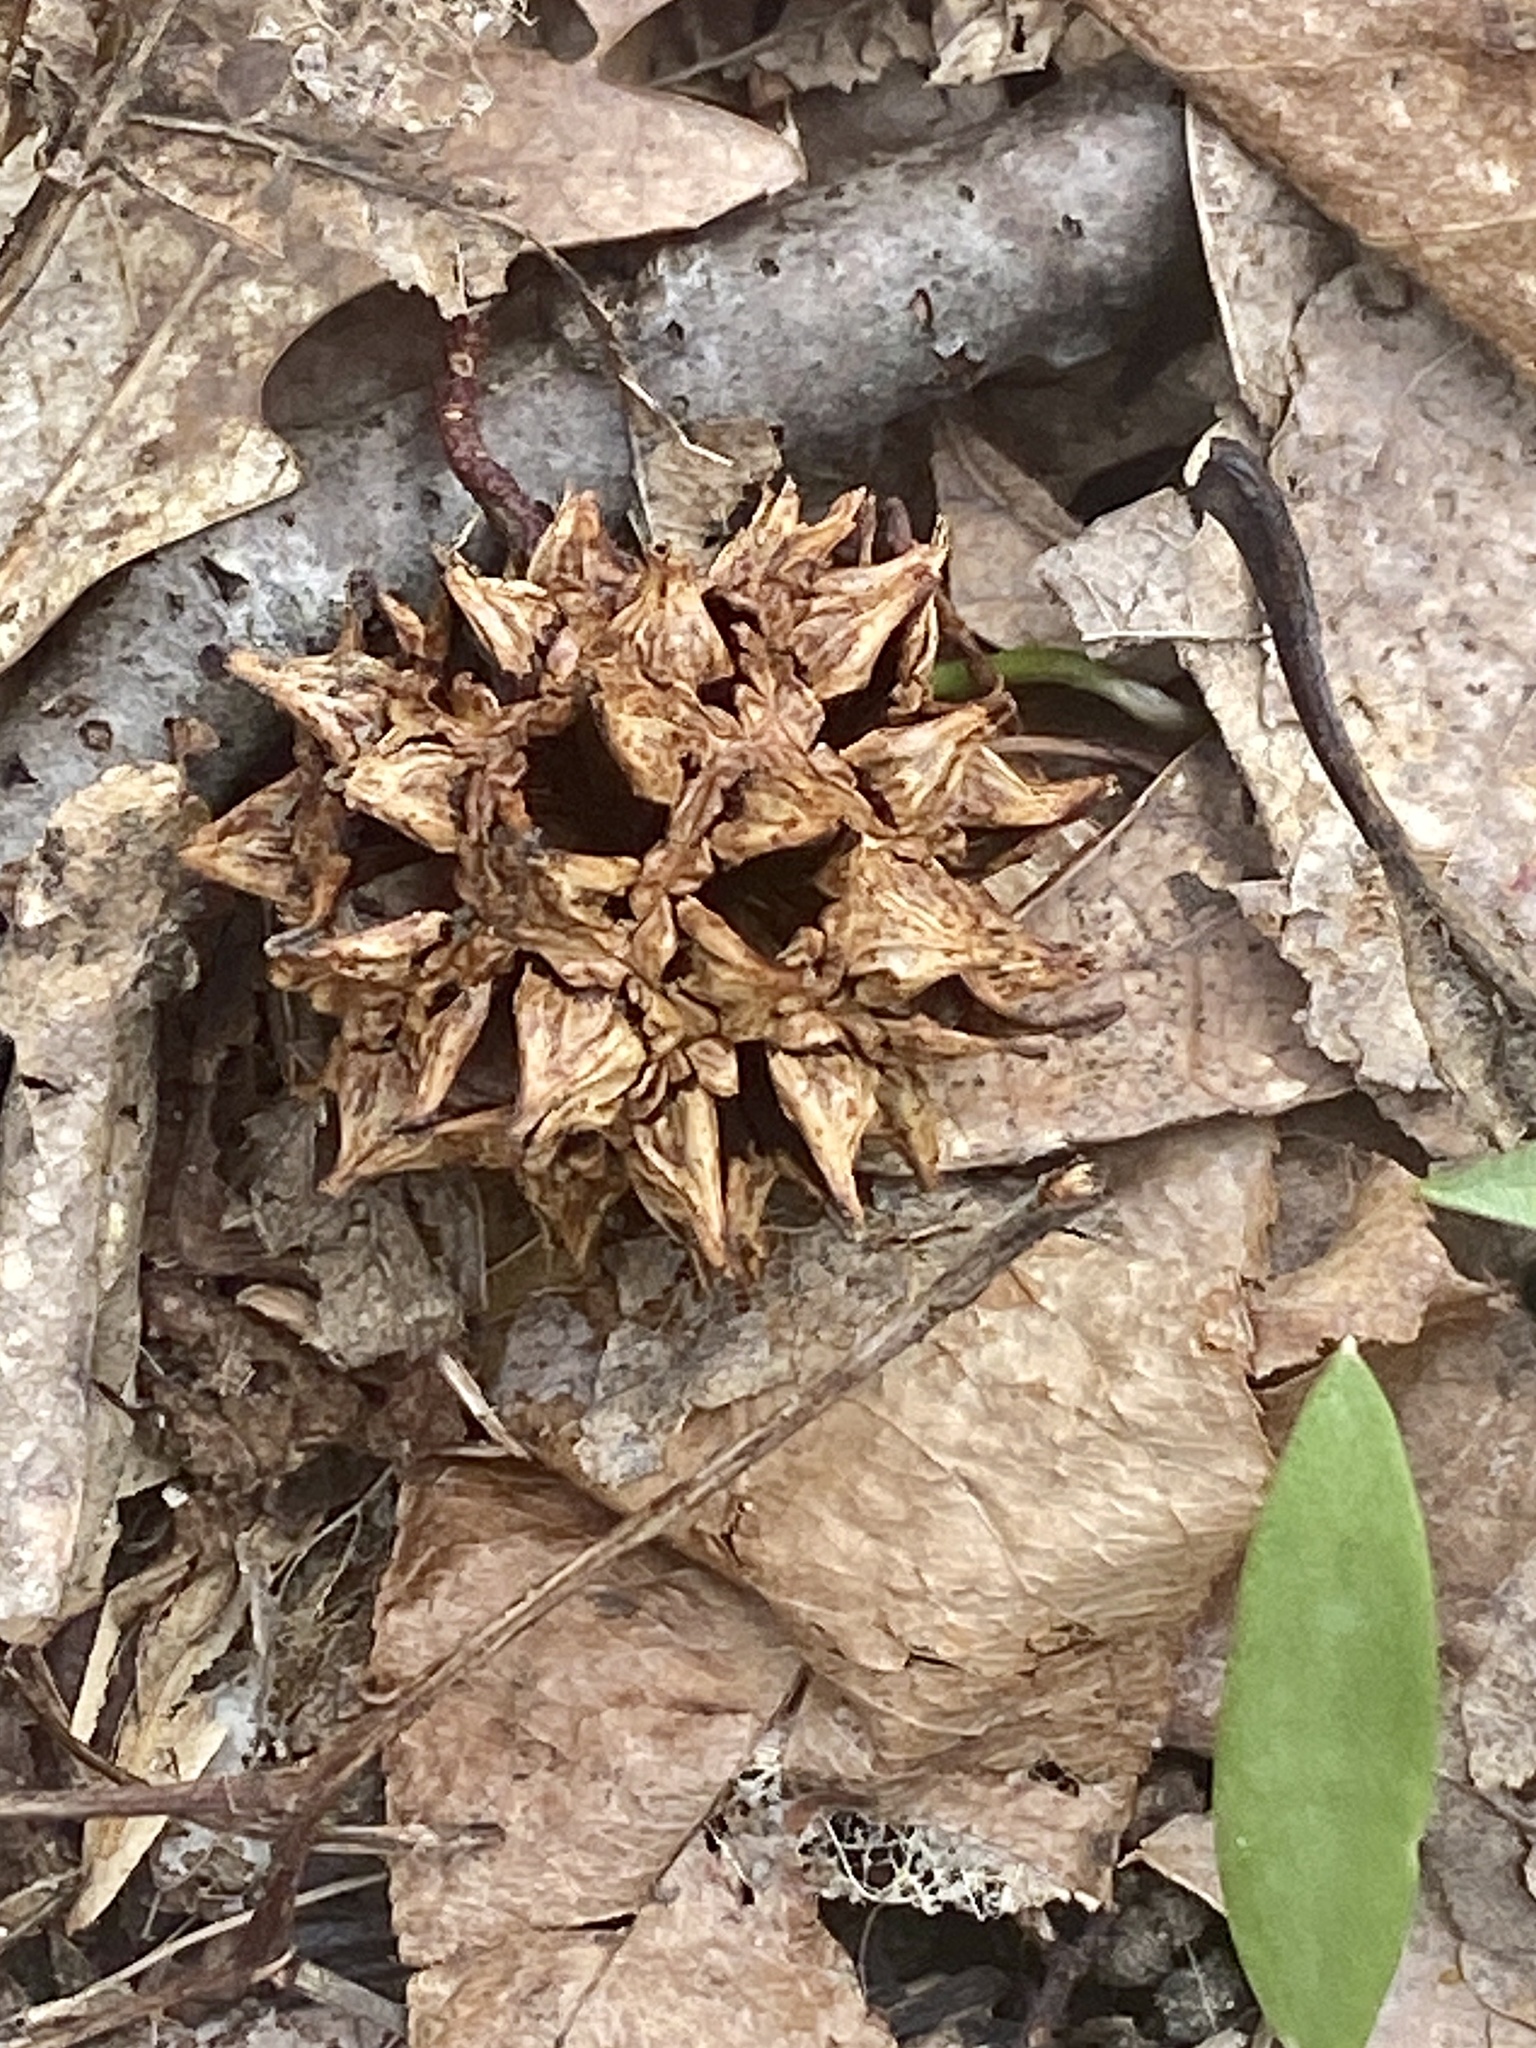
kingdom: Plantae
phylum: Tracheophyta
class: Magnoliopsida
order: Saxifragales
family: Altingiaceae
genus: Liquidambar
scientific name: Liquidambar styraciflua
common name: Sweet gum
